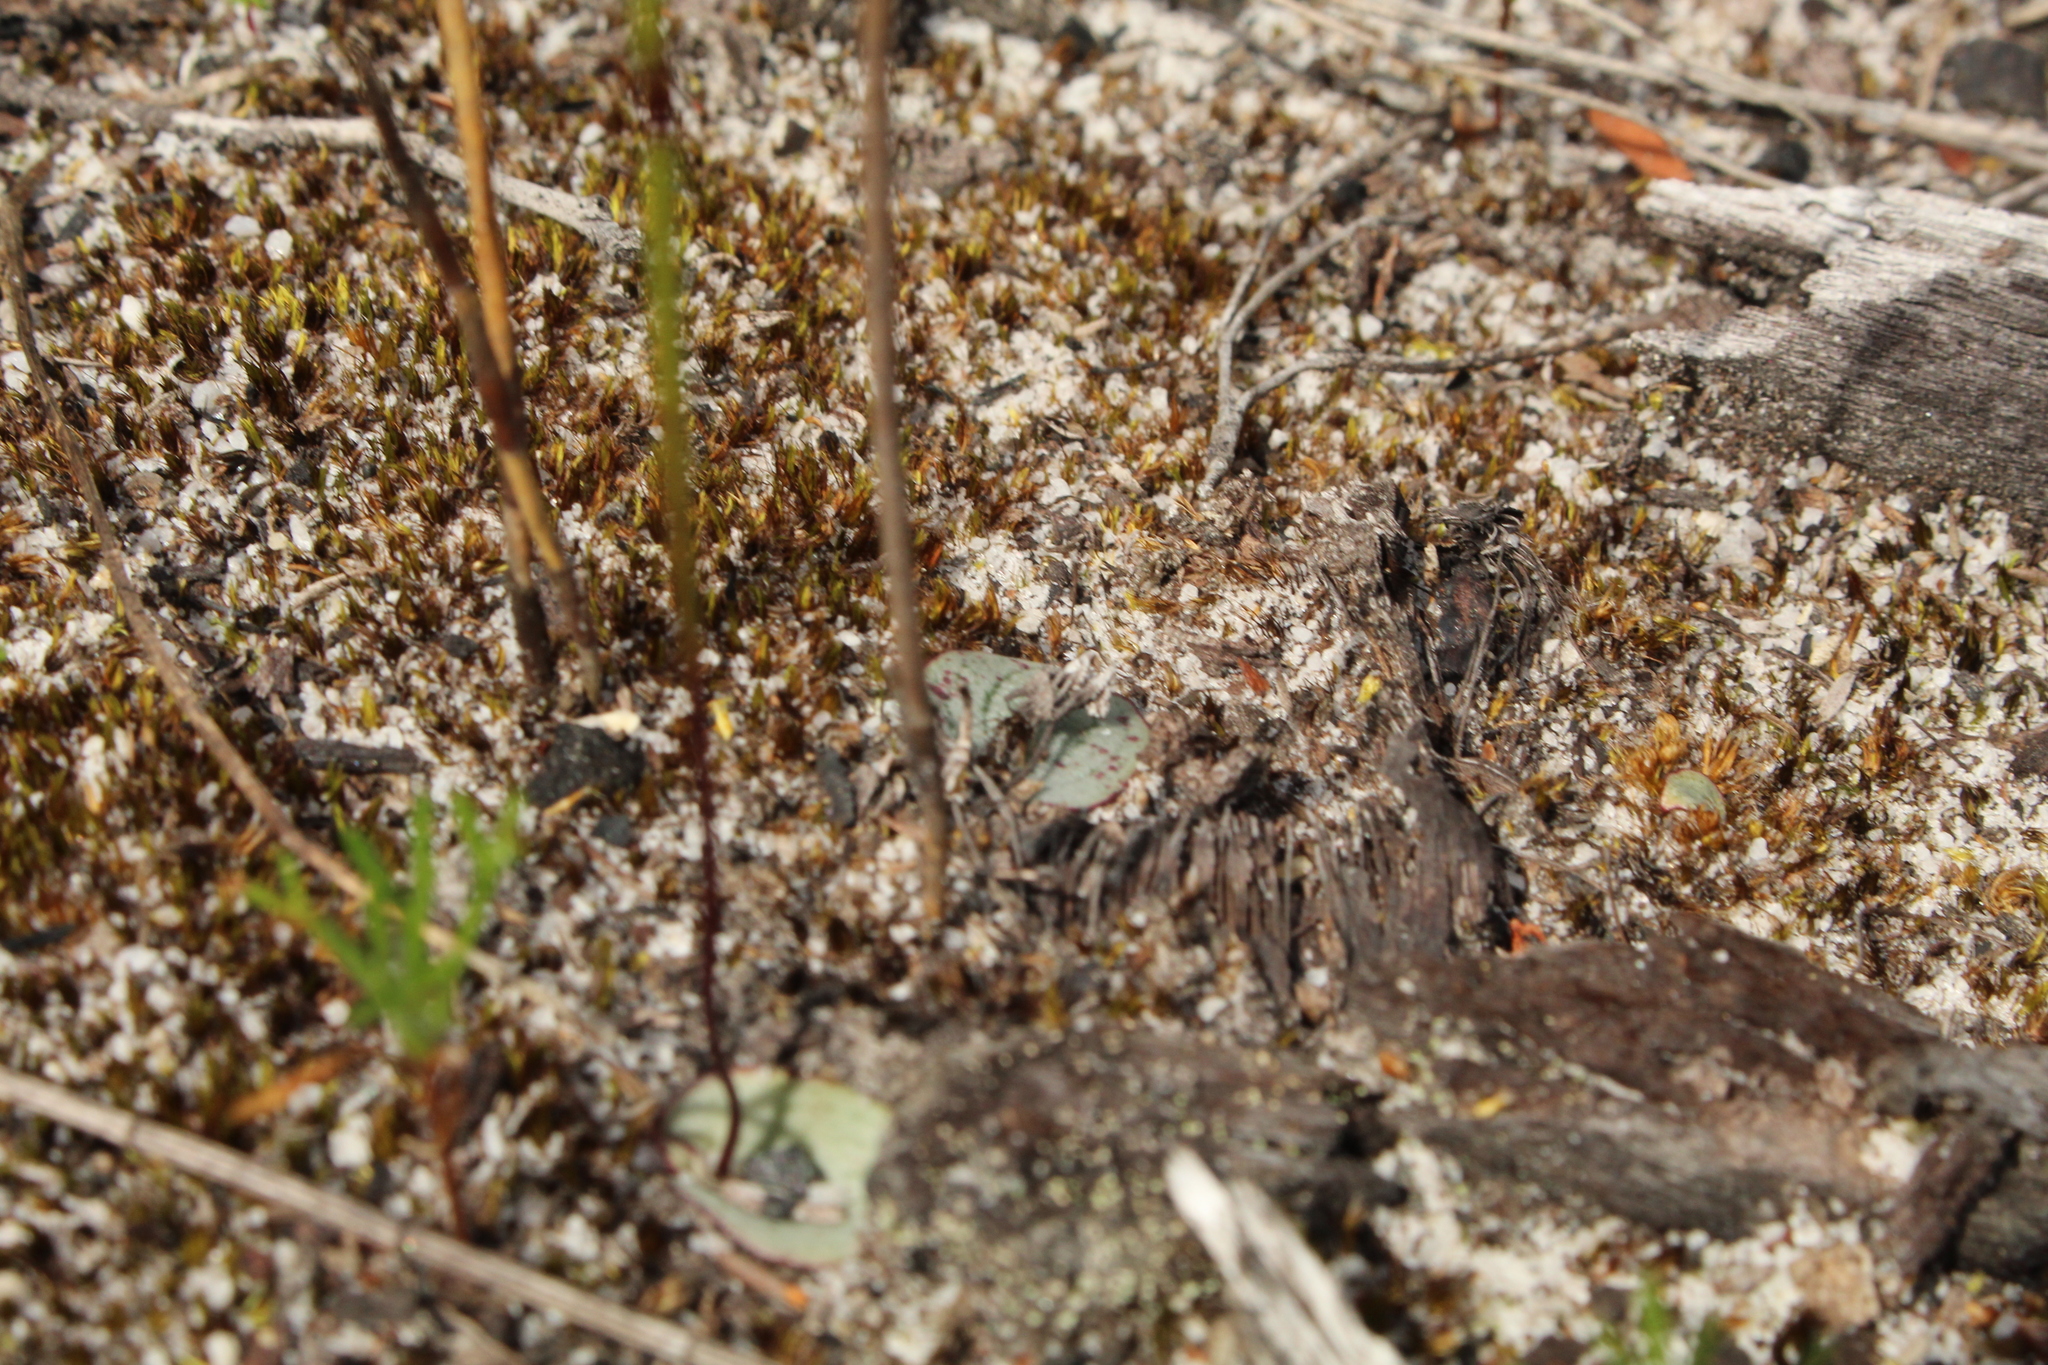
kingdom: Plantae
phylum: Tracheophyta
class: Liliopsida
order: Asparagales
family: Orchidaceae
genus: Drakaea
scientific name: Drakaea glyptodon
